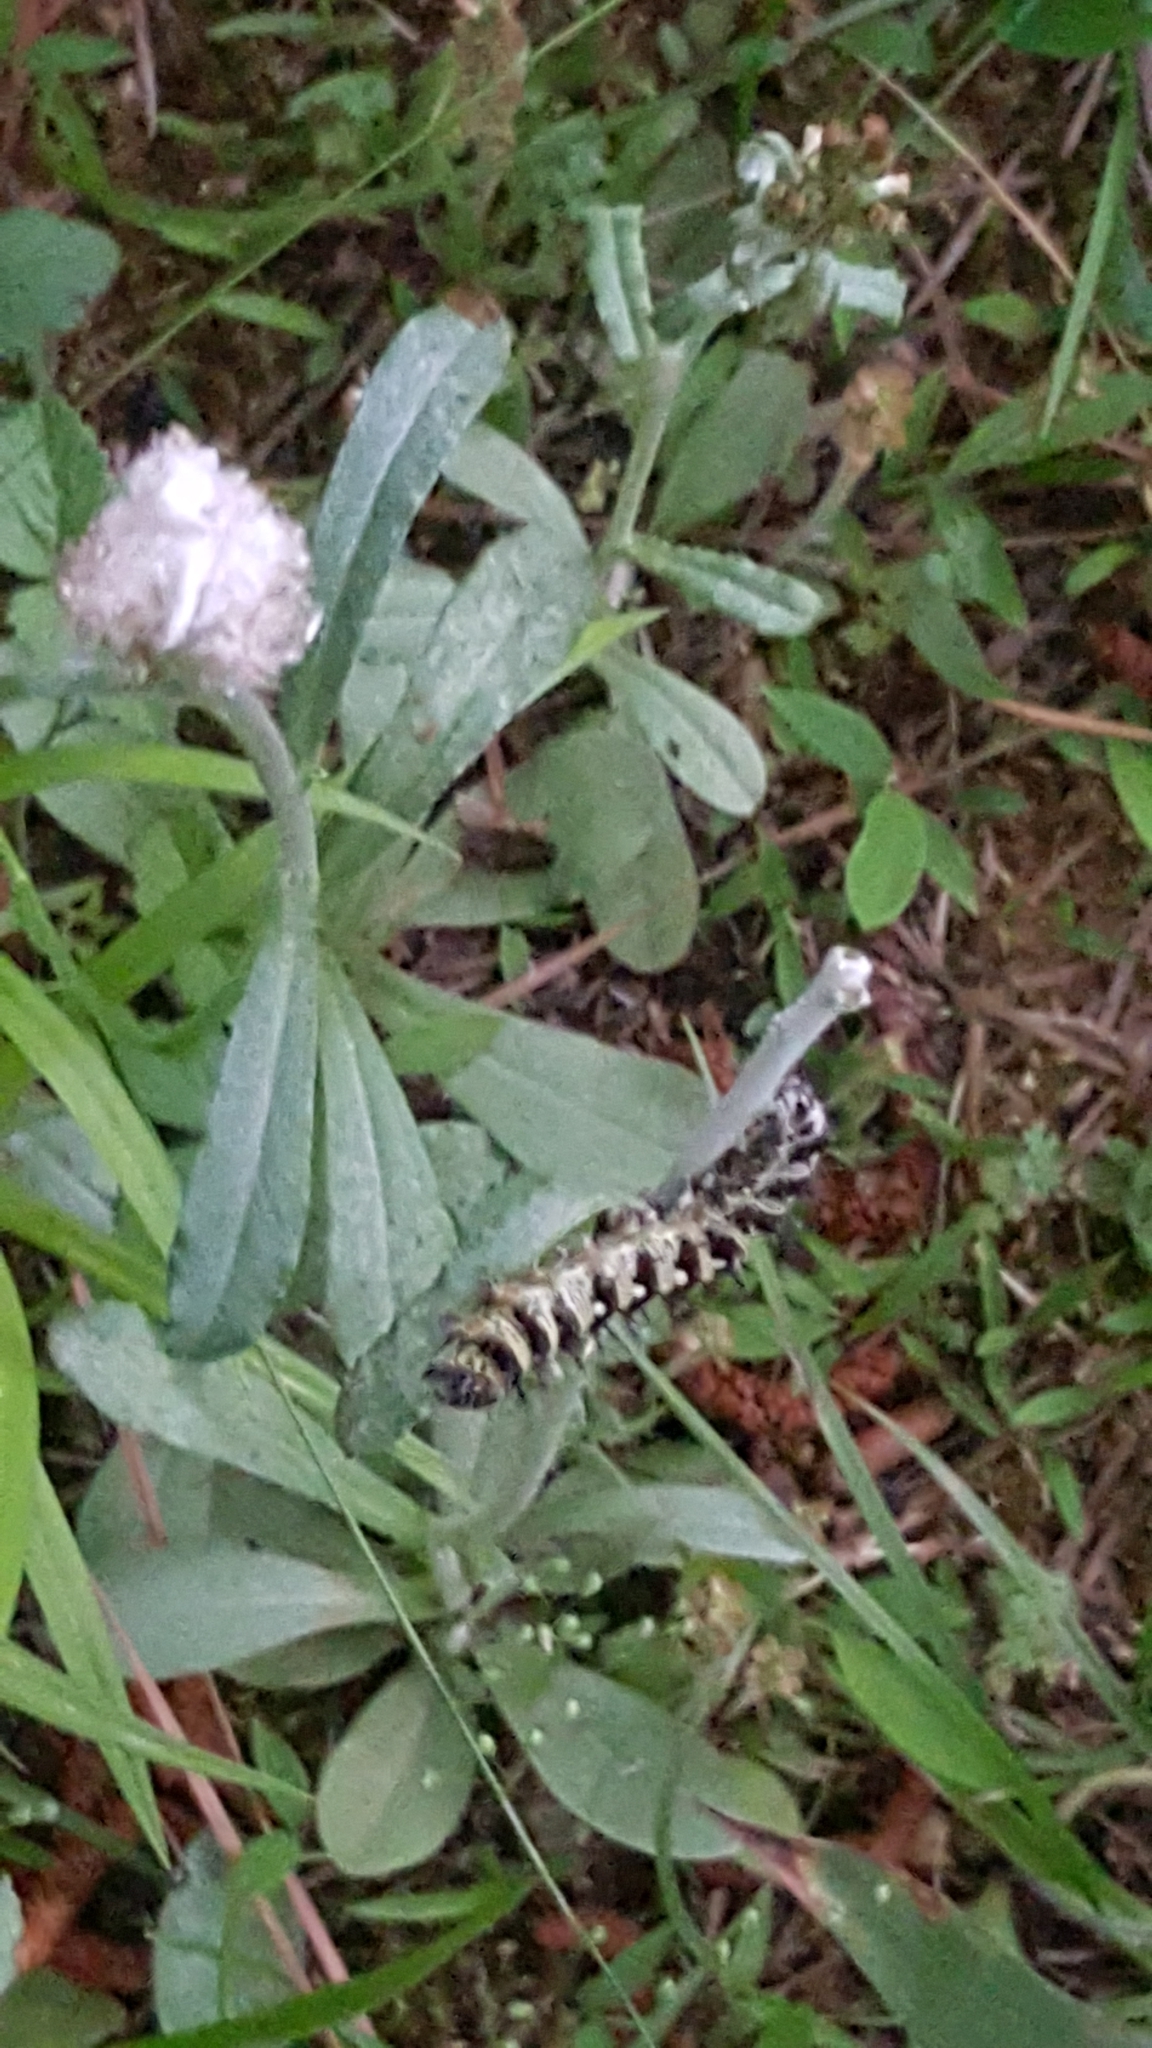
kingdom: Animalia
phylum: Arthropoda
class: Insecta
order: Lepidoptera
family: Nymphalidae
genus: Vanessa
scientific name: Vanessa virginiensis
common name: American lady
